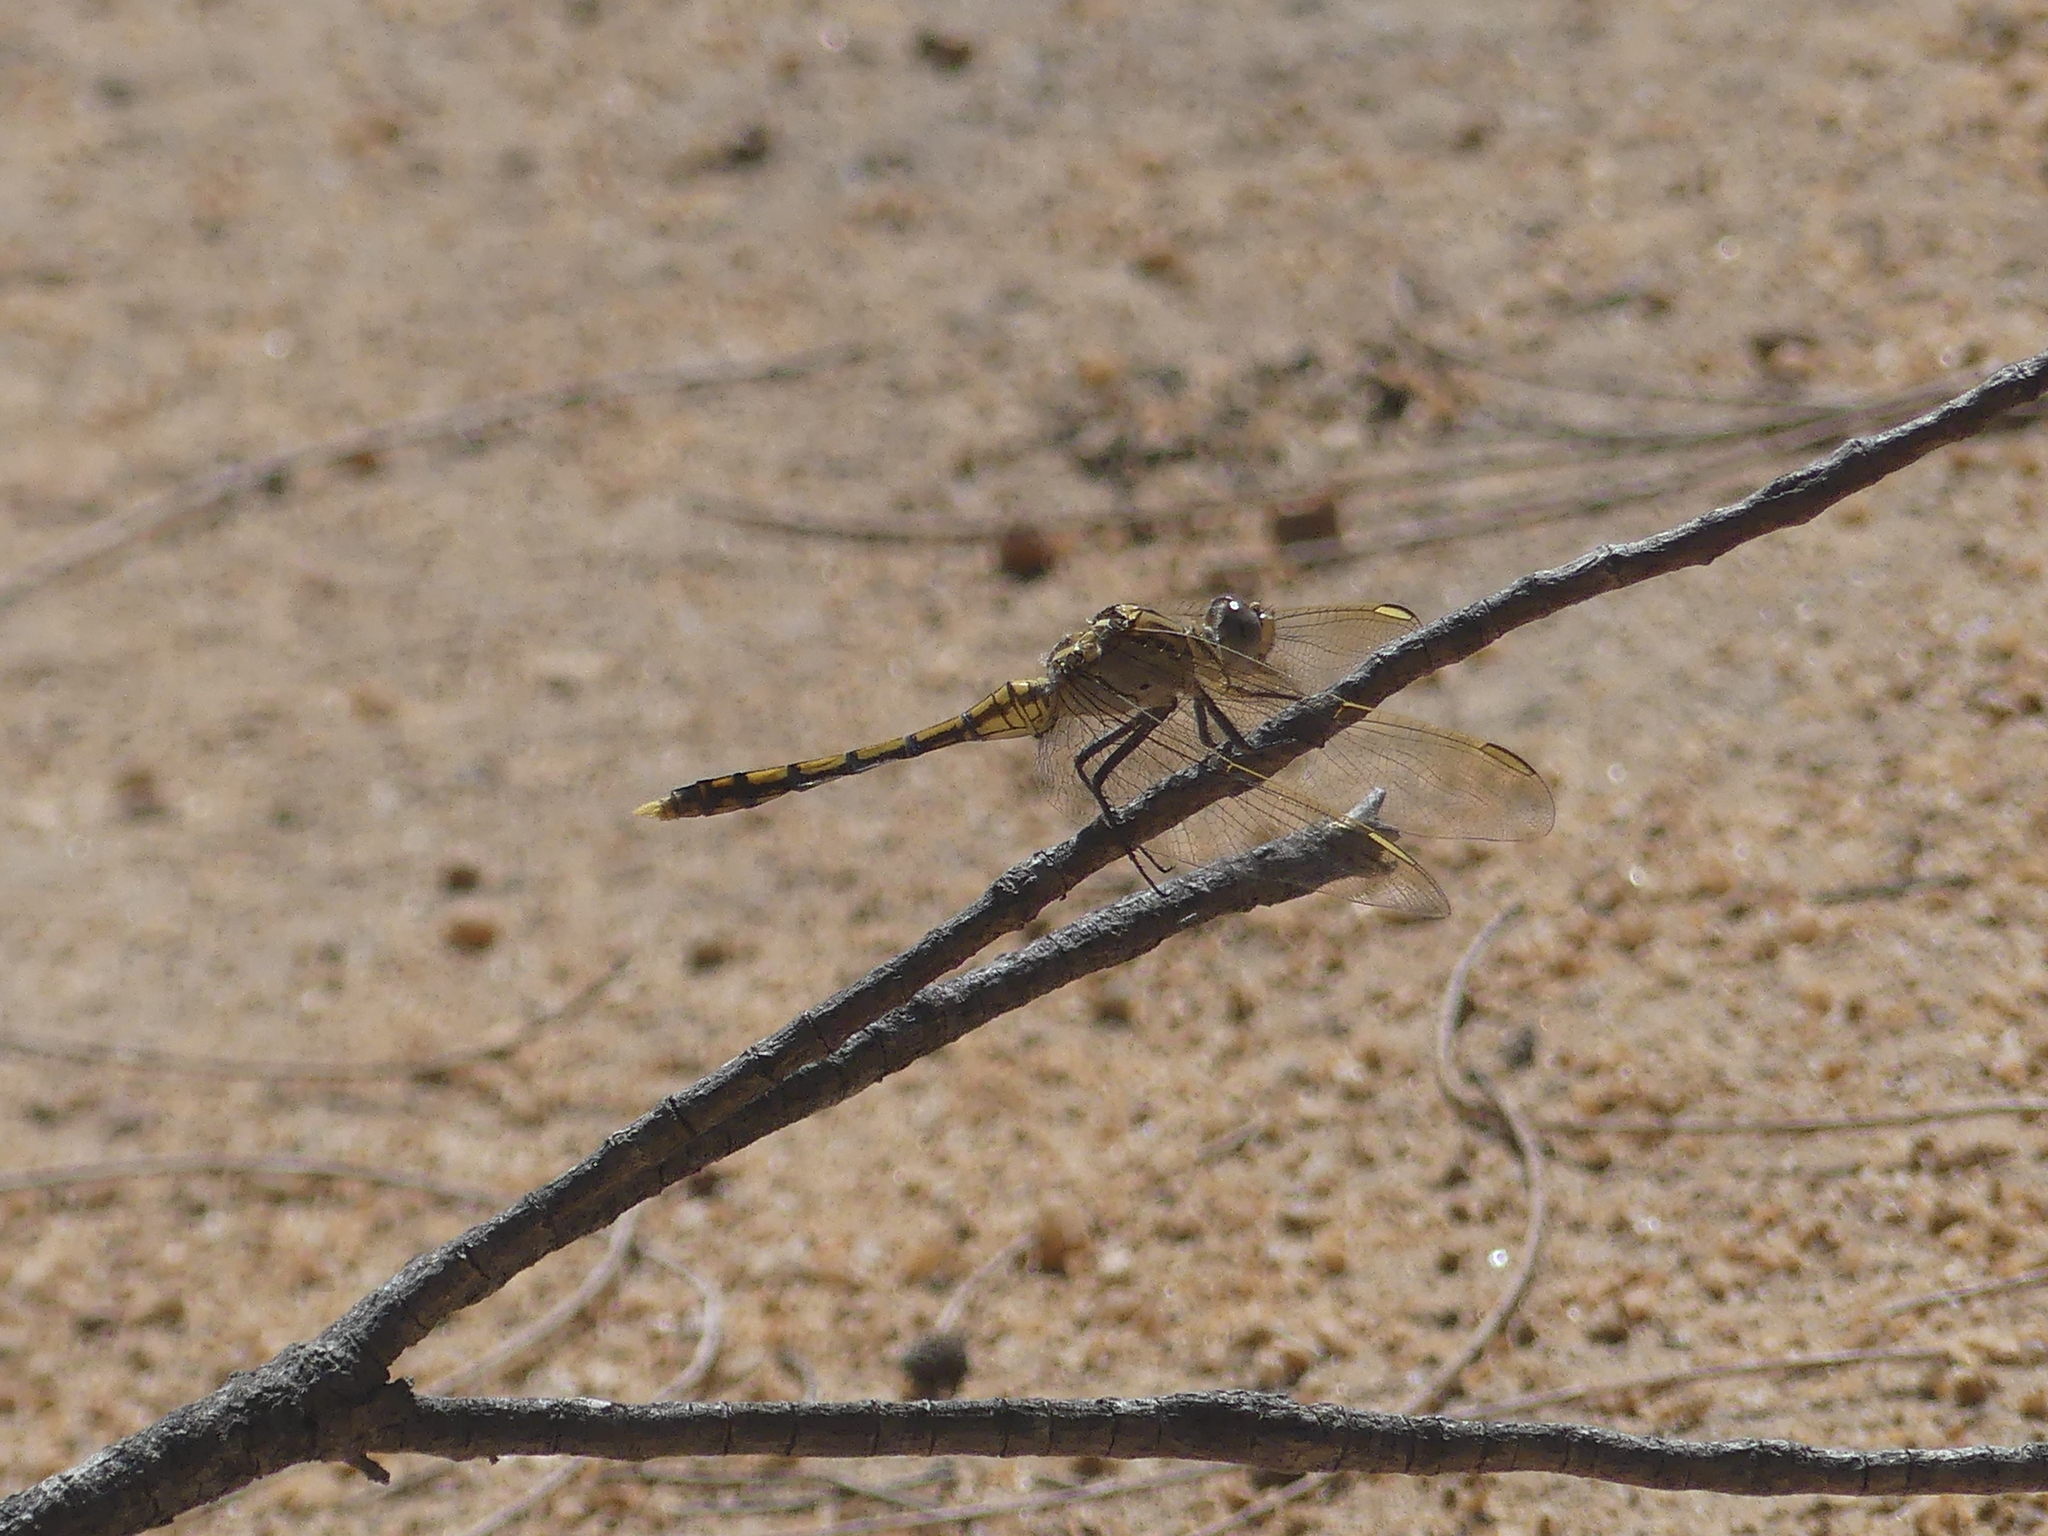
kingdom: Animalia
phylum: Arthropoda
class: Insecta
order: Odonata
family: Libellulidae
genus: Orthetrum
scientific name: Orthetrum caledonicum
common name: Blue skimmer
